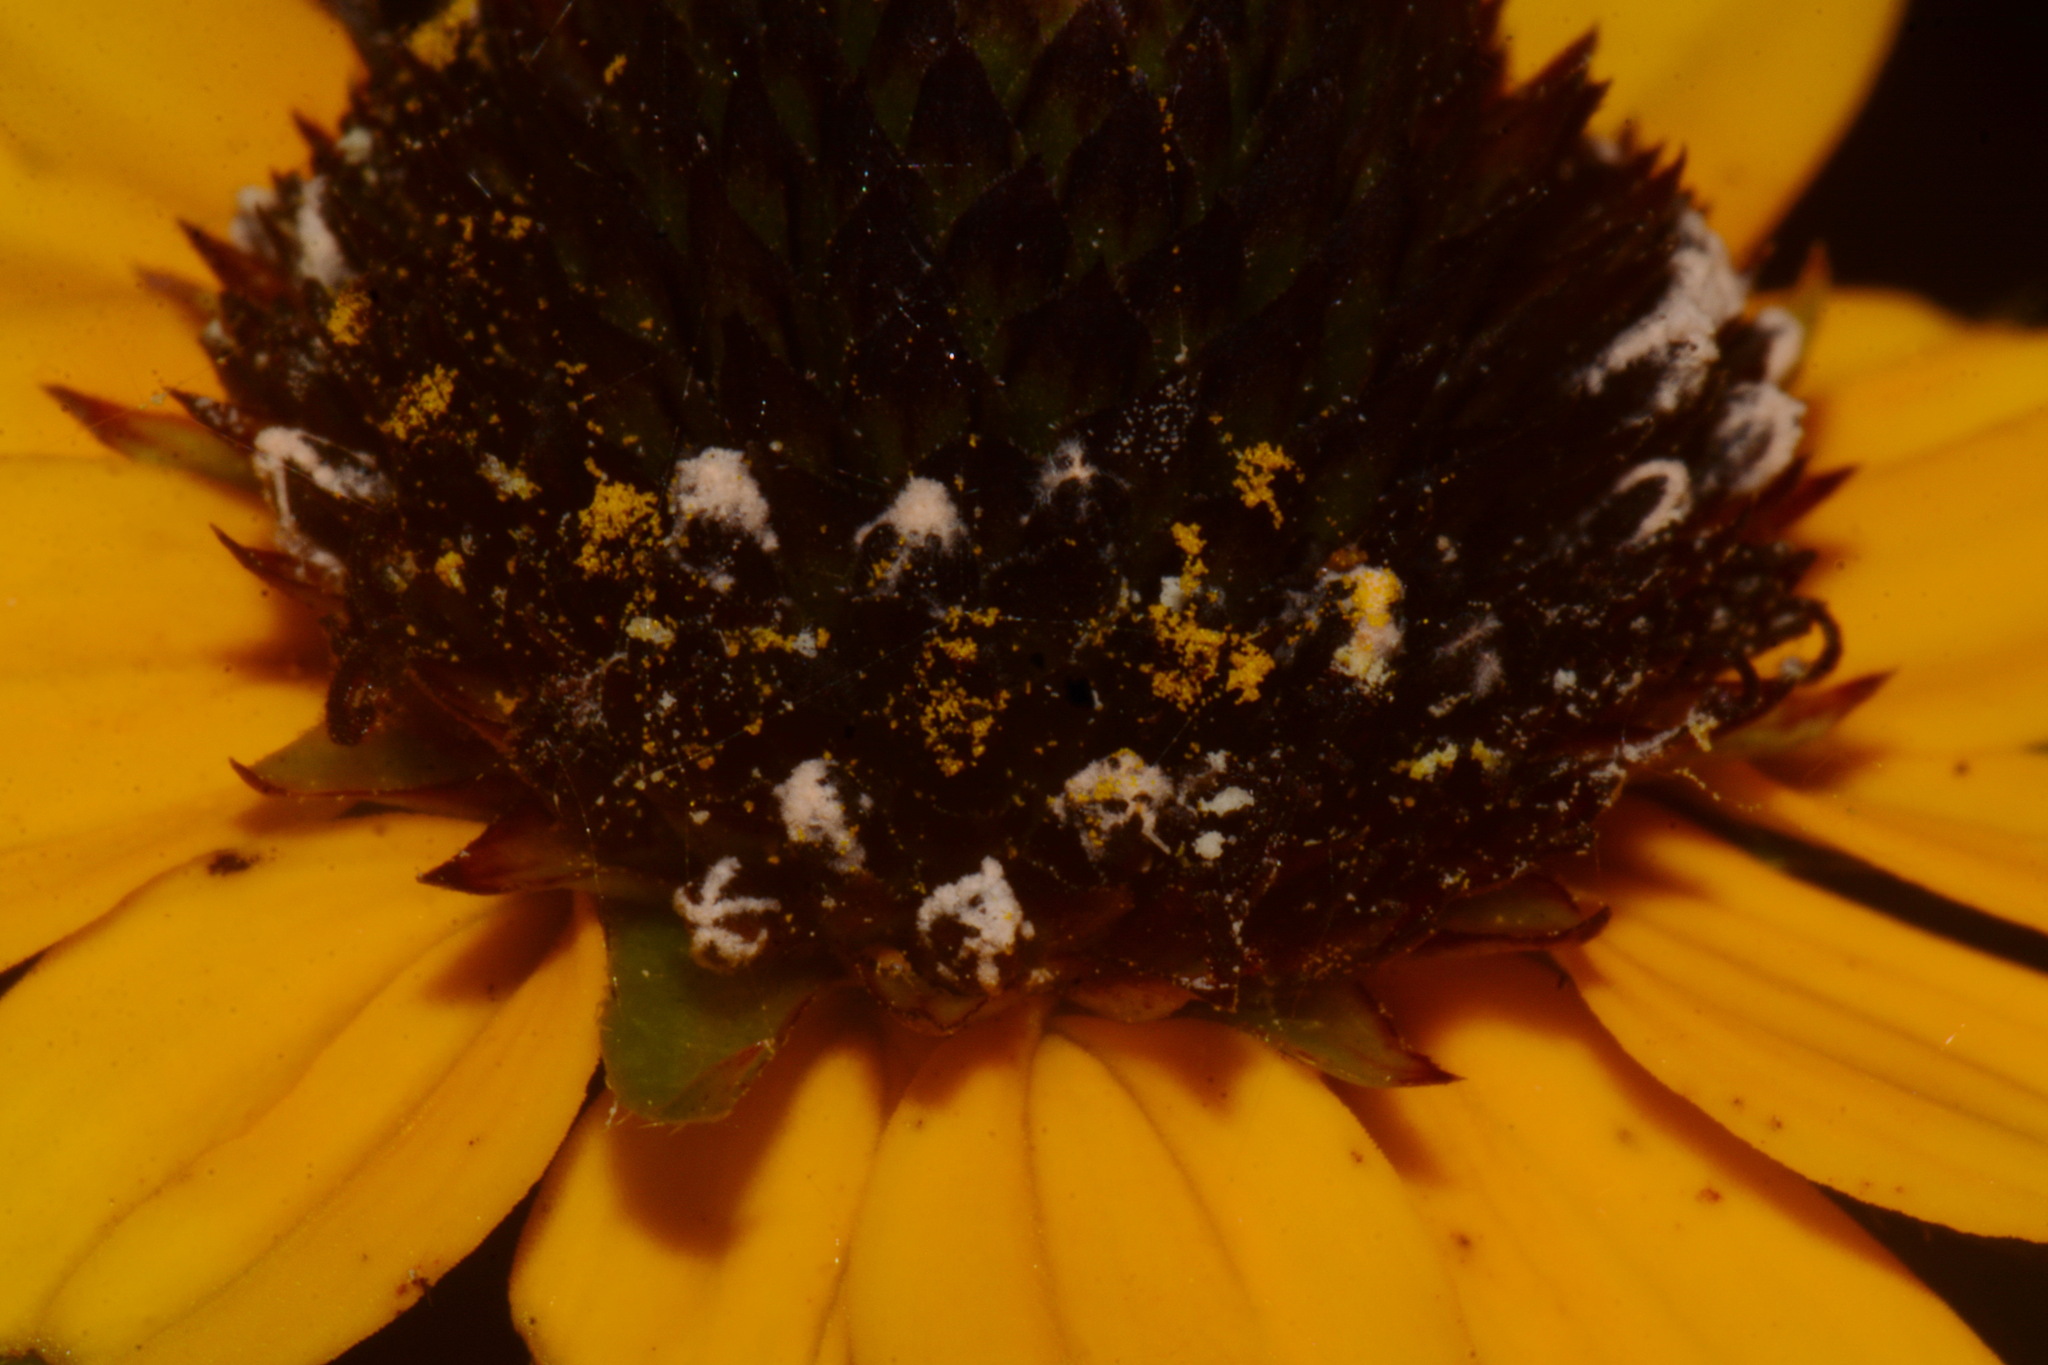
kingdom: Plantae
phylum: Tracheophyta
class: Magnoliopsida
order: Asterales
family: Asteraceae
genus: Rudbeckia
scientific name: Rudbeckia tenax
